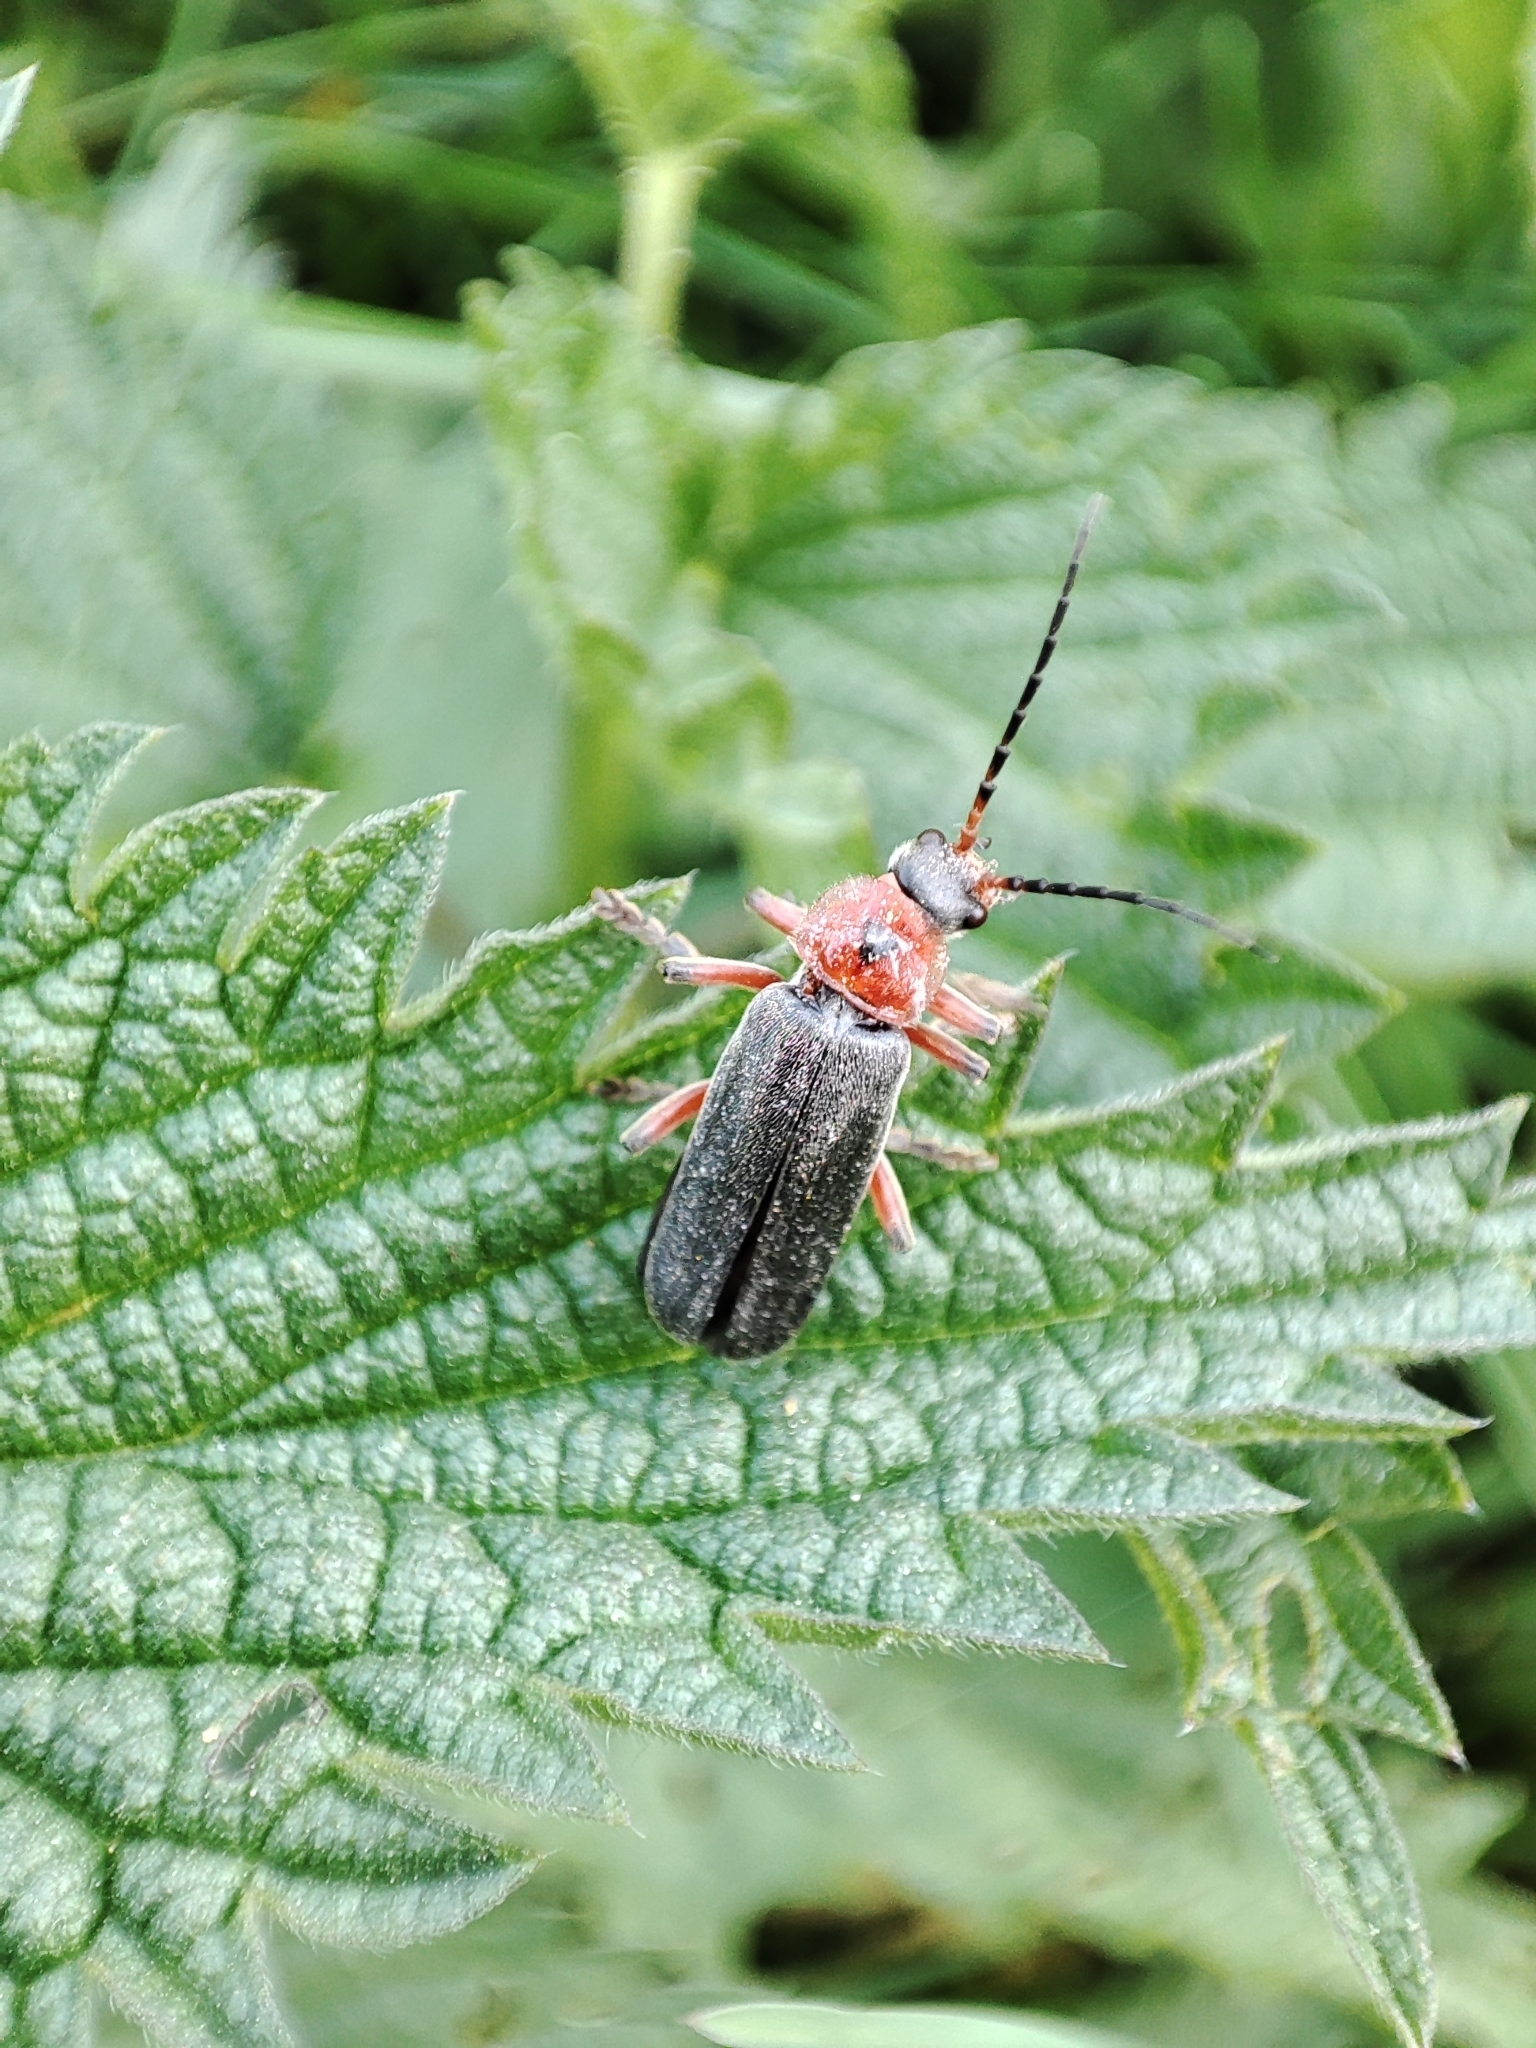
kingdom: Animalia
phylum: Arthropoda
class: Insecta
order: Coleoptera
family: Cantharidae
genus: Cantharis
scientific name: Cantharis rustica
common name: Soldier beetle
